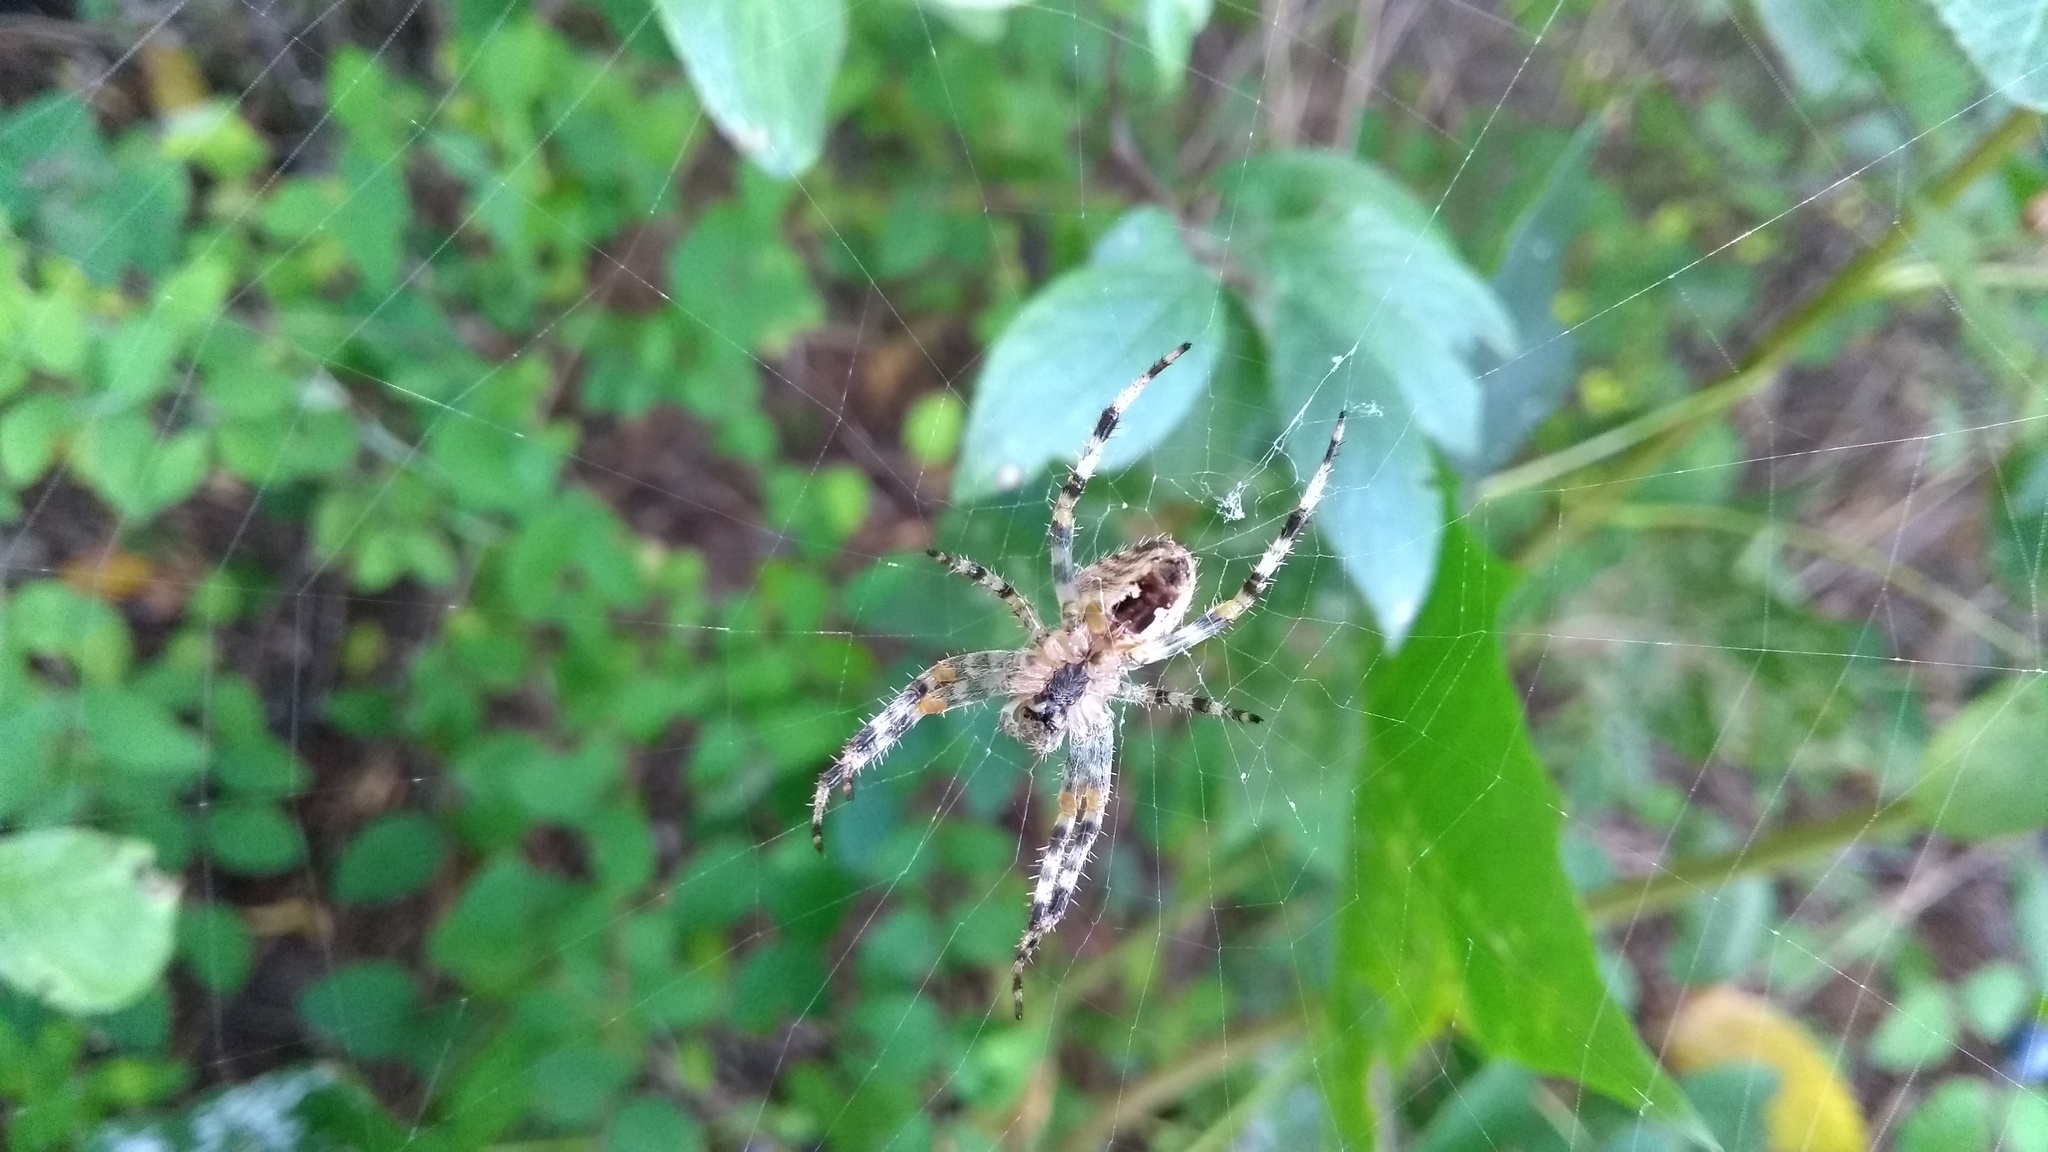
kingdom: Animalia
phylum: Arthropoda
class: Arachnida
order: Araneae
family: Araneidae
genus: Araneus
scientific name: Araneus diadematus
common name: Cross orbweaver
